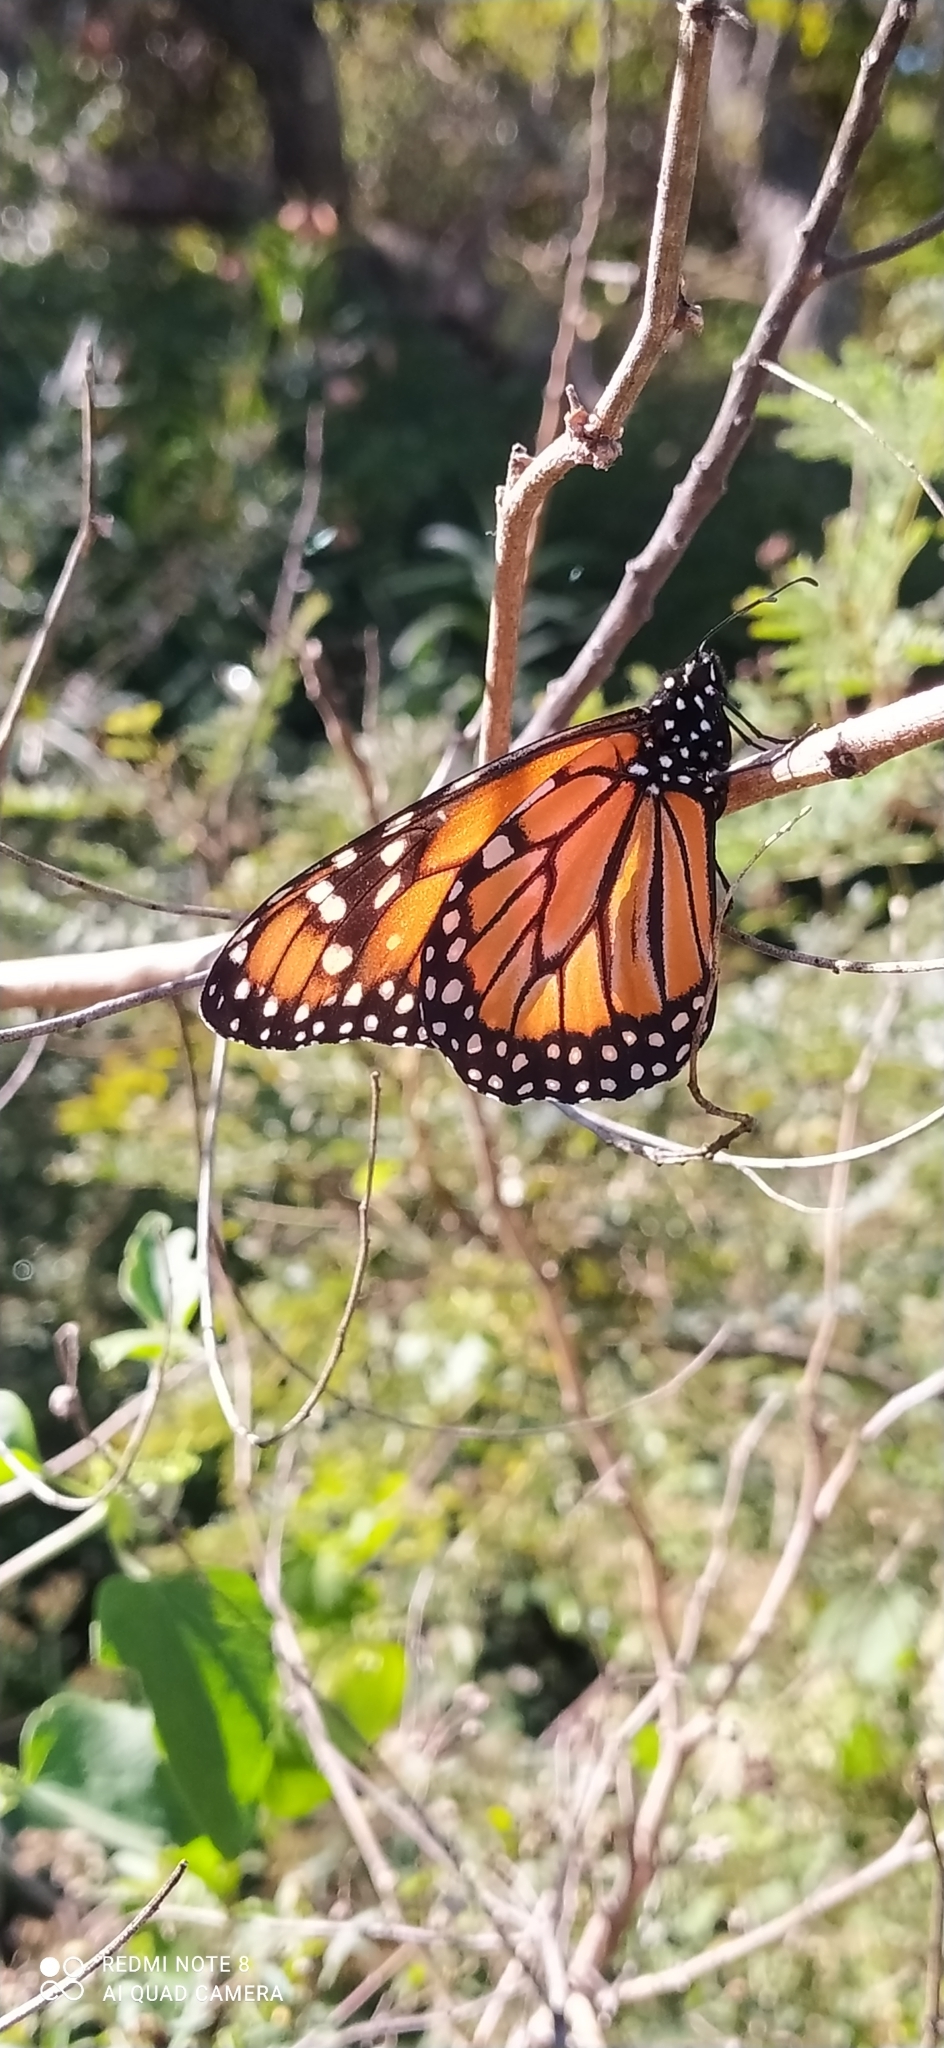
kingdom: Animalia
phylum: Arthropoda
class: Insecta
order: Lepidoptera
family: Nymphalidae
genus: Danaus
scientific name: Danaus erippus
